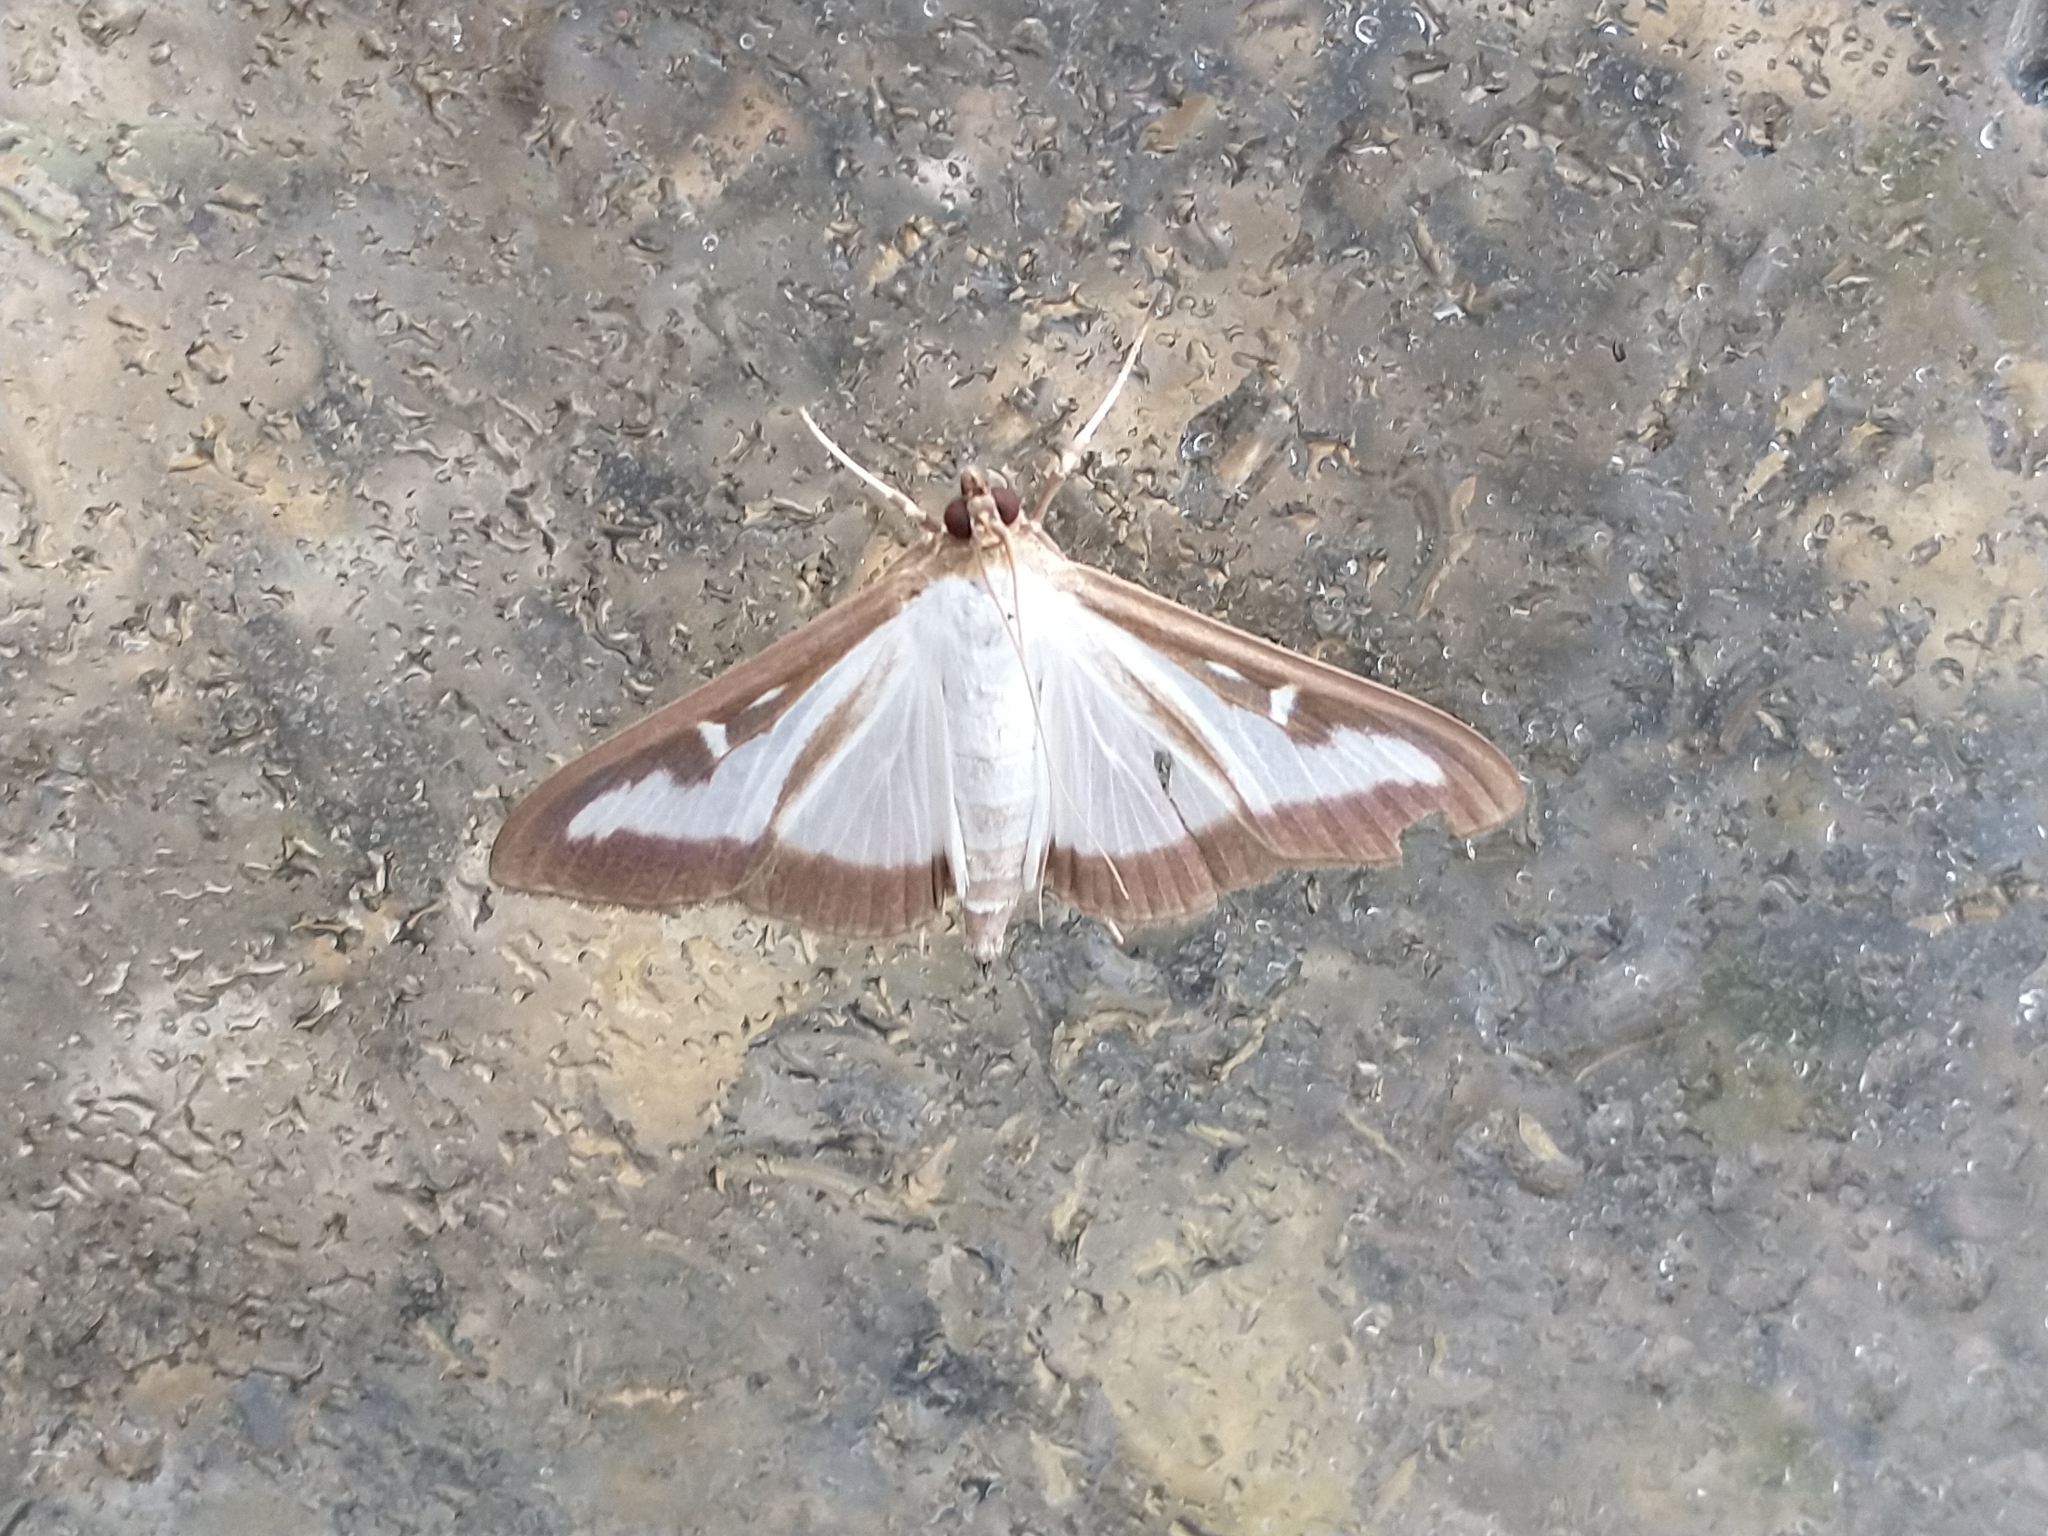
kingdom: Animalia
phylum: Arthropoda
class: Insecta
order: Lepidoptera
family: Crambidae
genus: Cydalima
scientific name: Cydalima perspectalis
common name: Box tree moth
